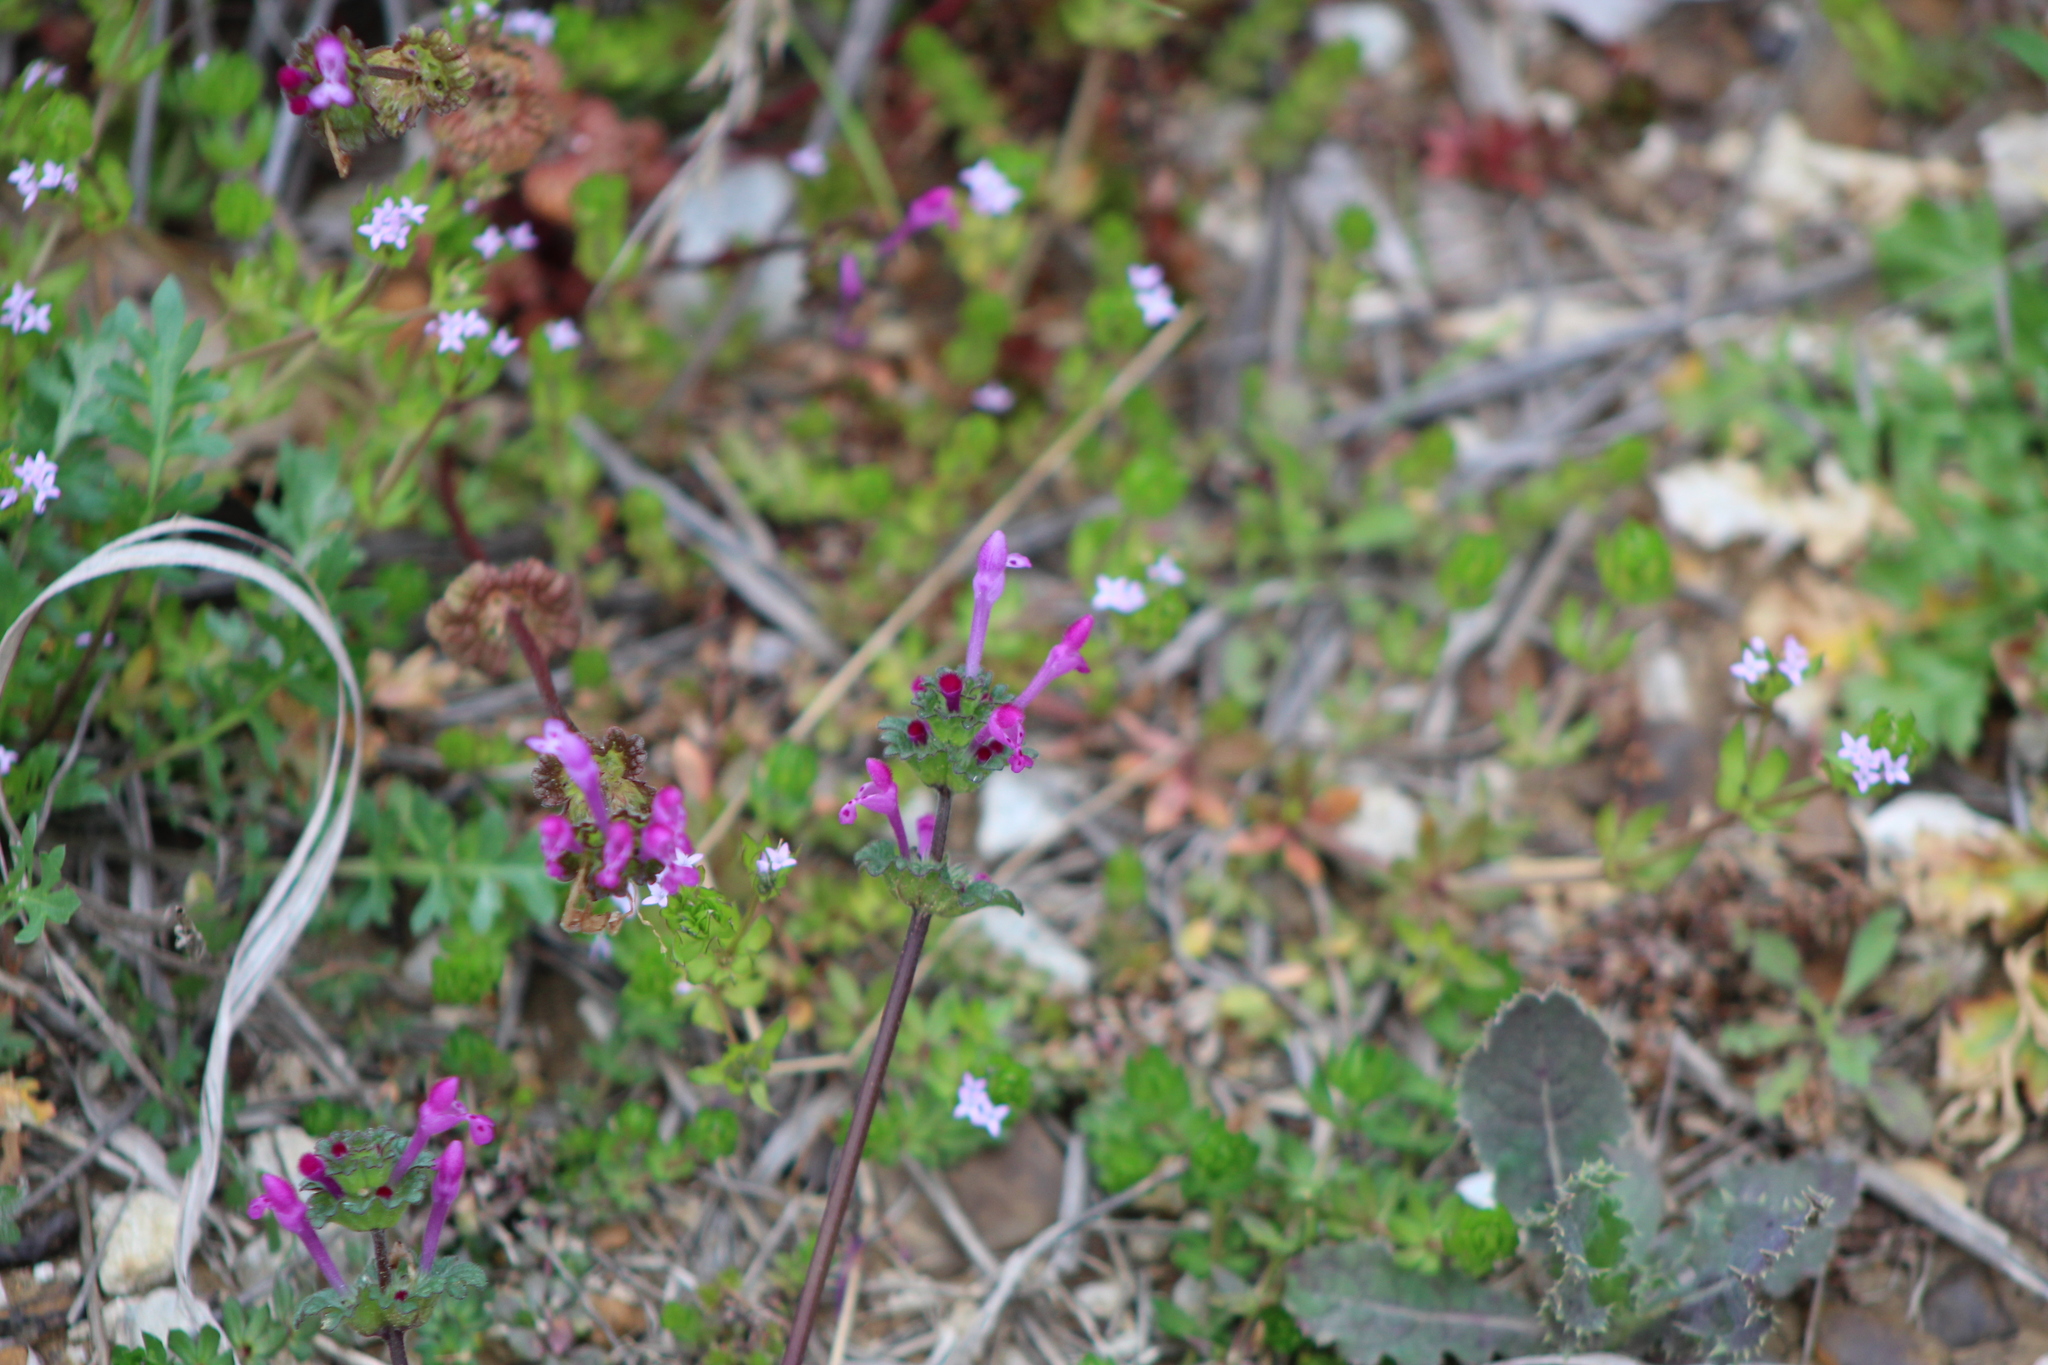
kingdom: Plantae
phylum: Tracheophyta
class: Magnoliopsida
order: Lamiales
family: Lamiaceae
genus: Lamium
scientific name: Lamium amplexicaule
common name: Henbit dead-nettle
